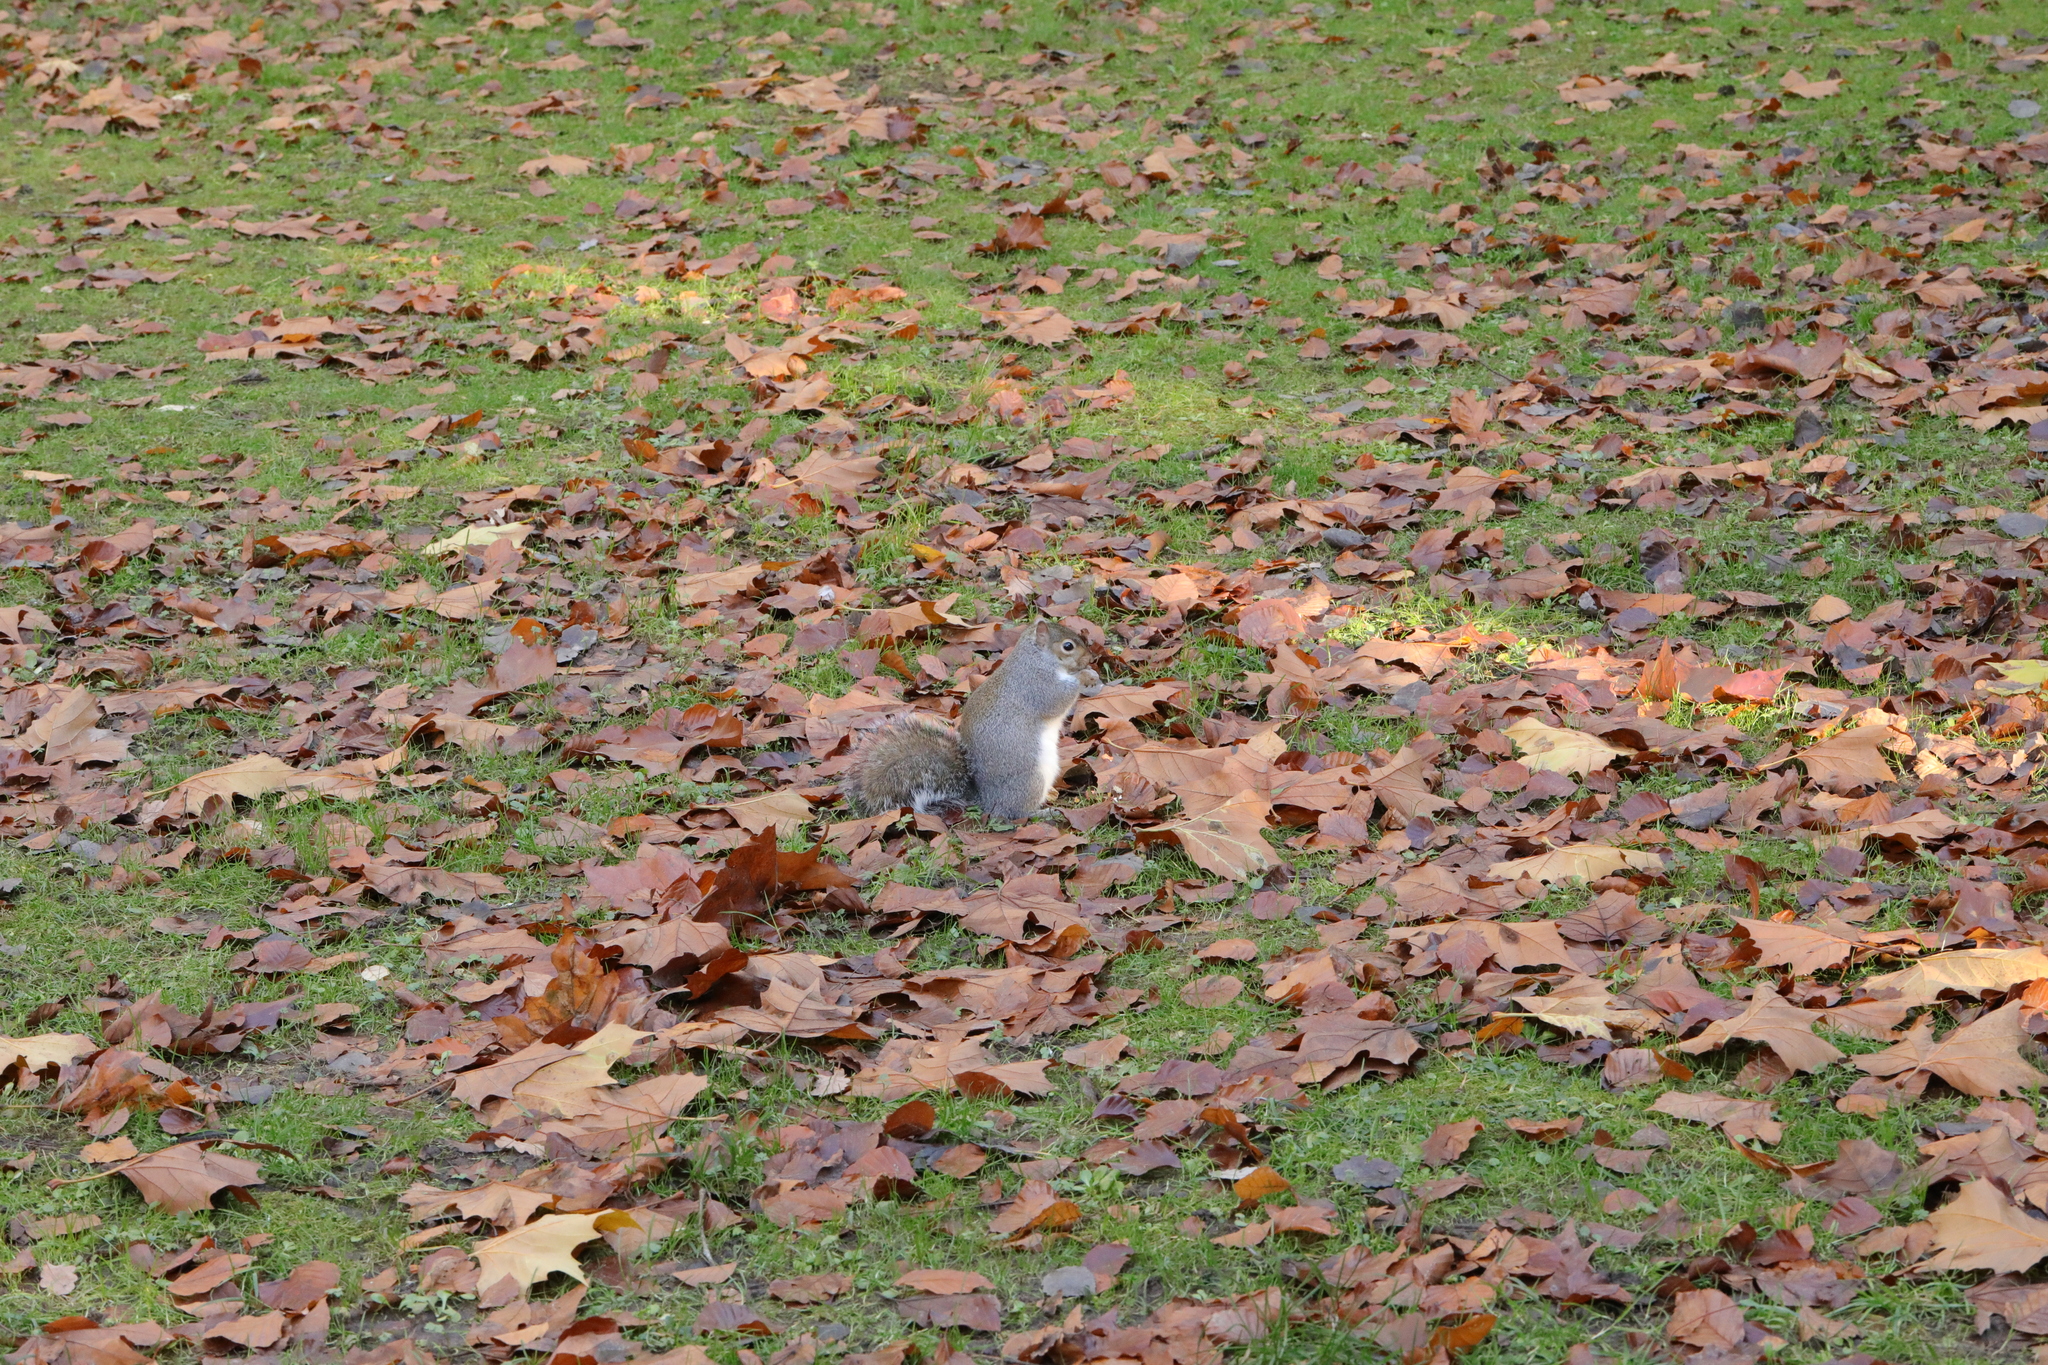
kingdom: Animalia
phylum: Chordata
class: Mammalia
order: Rodentia
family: Sciuridae
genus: Sciurus
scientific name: Sciurus carolinensis
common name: Eastern gray squirrel
